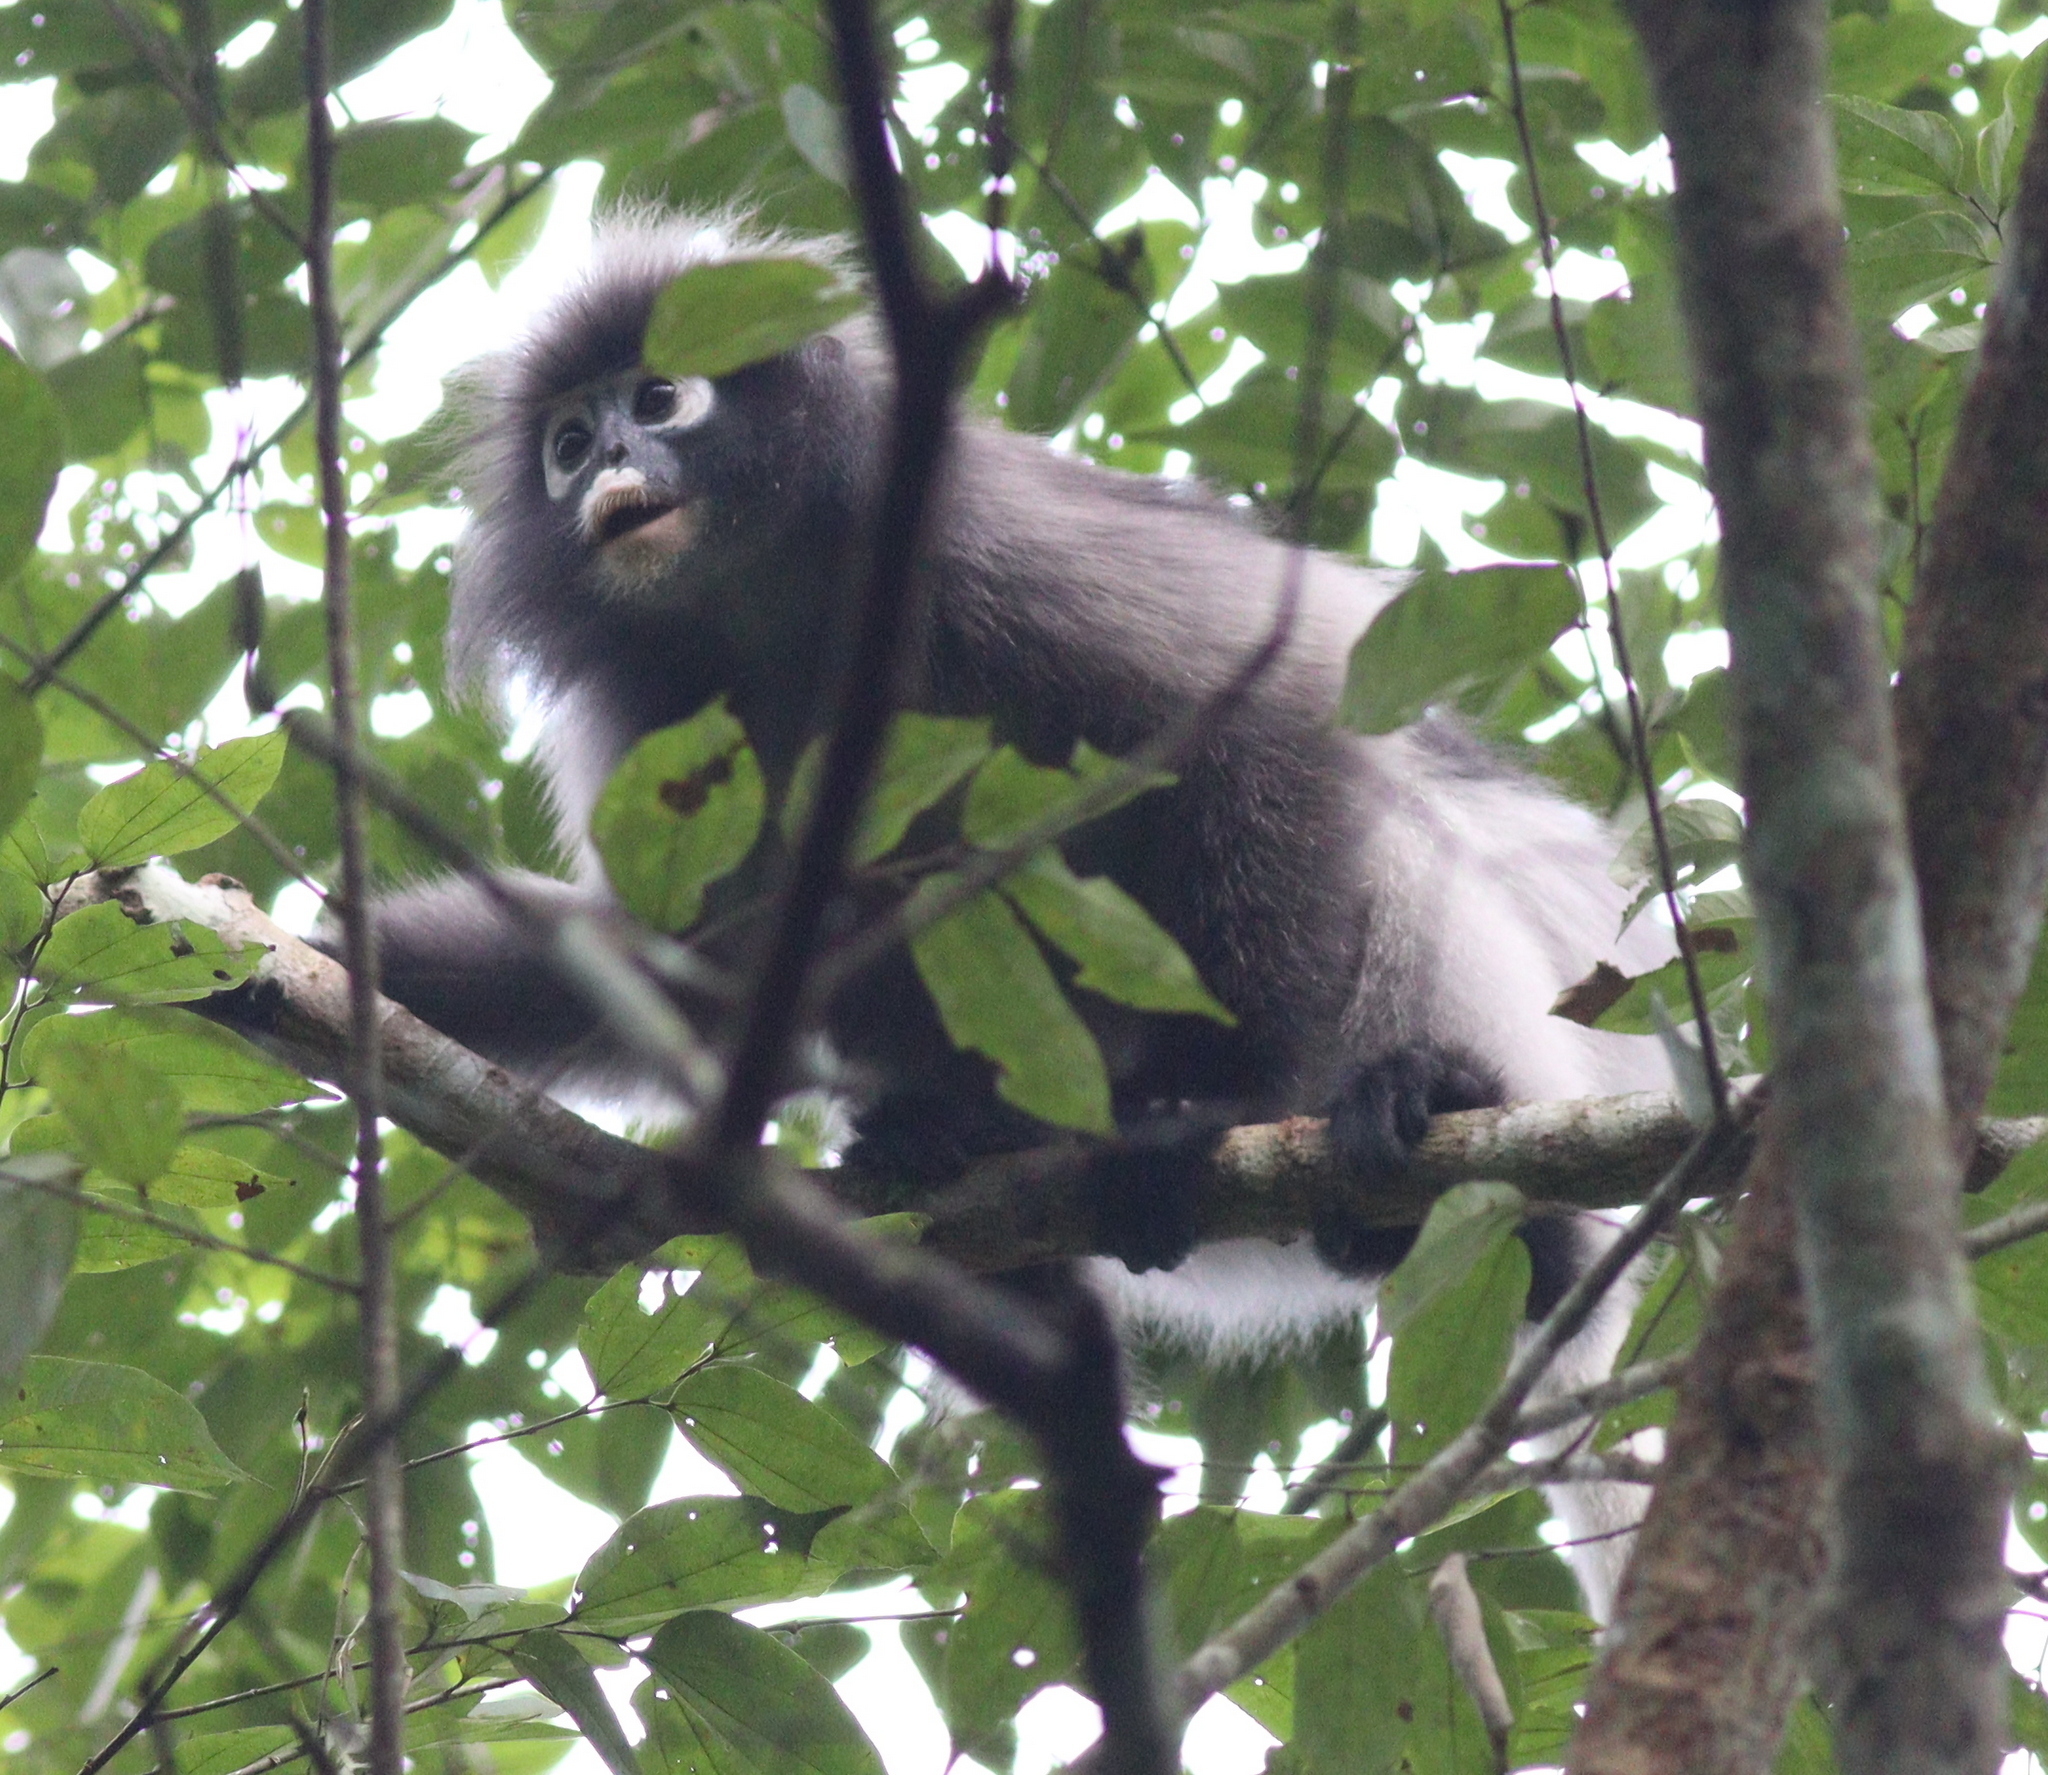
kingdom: Animalia
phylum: Chordata
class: Mammalia
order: Primates
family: Cercopithecidae
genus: Trachypithecus
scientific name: Trachypithecus obscurus
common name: Dusky leaf-monkey
